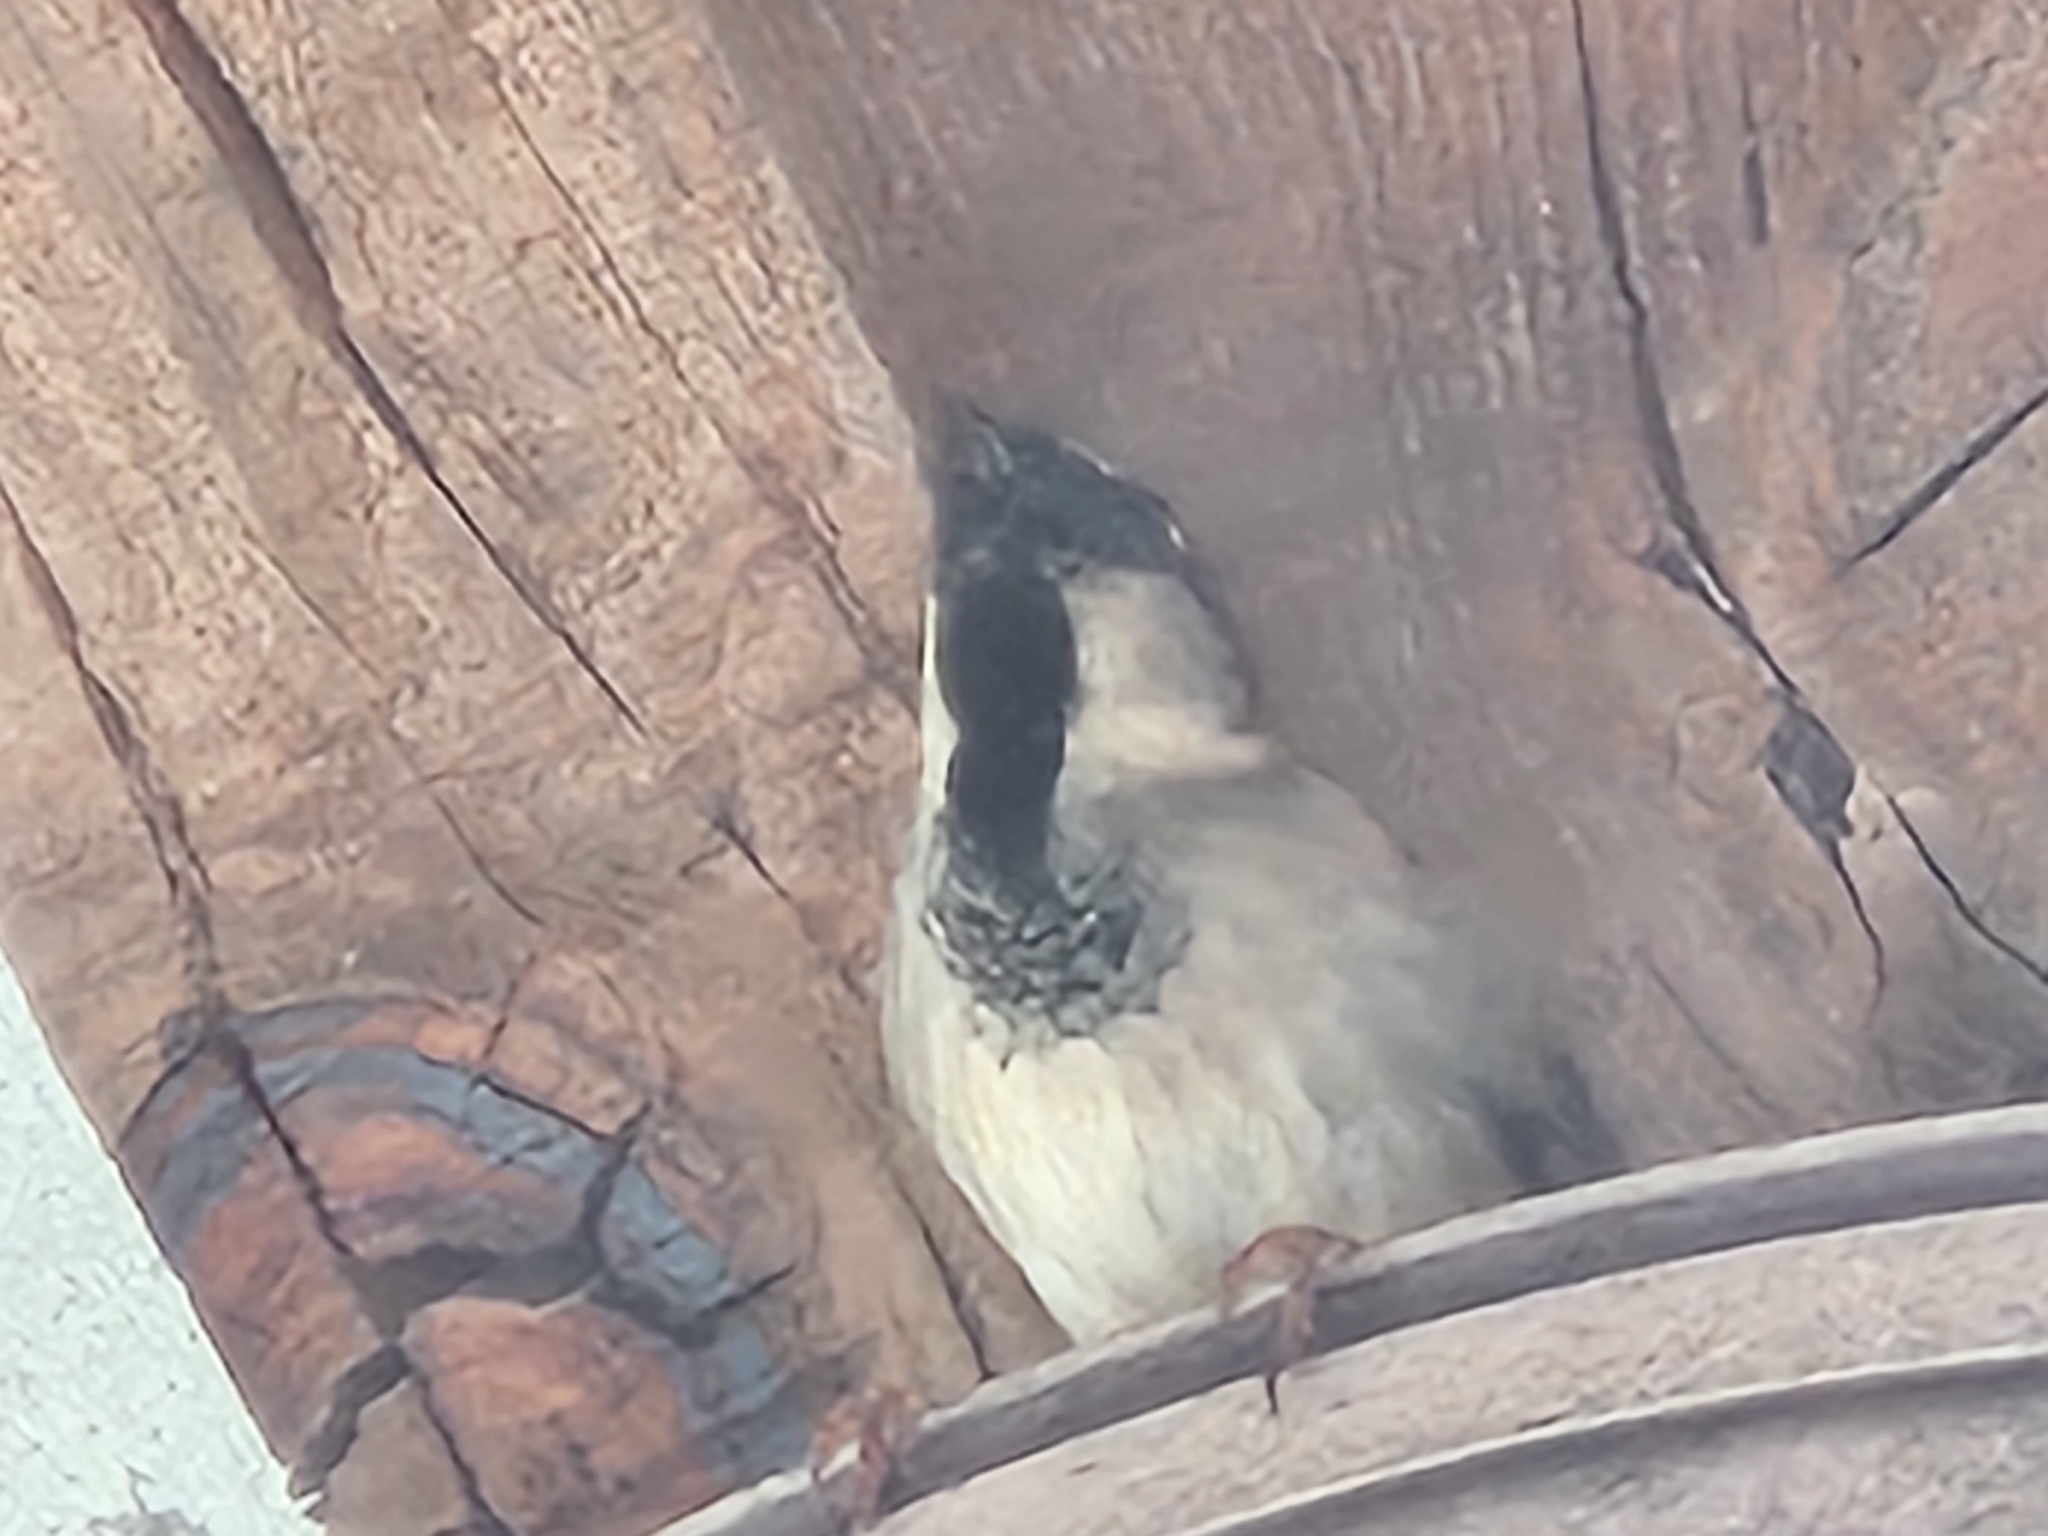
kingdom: Animalia
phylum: Chordata
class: Aves
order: Passeriformes
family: Passeridae
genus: Passer
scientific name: Passer domesticus
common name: House sparrow
